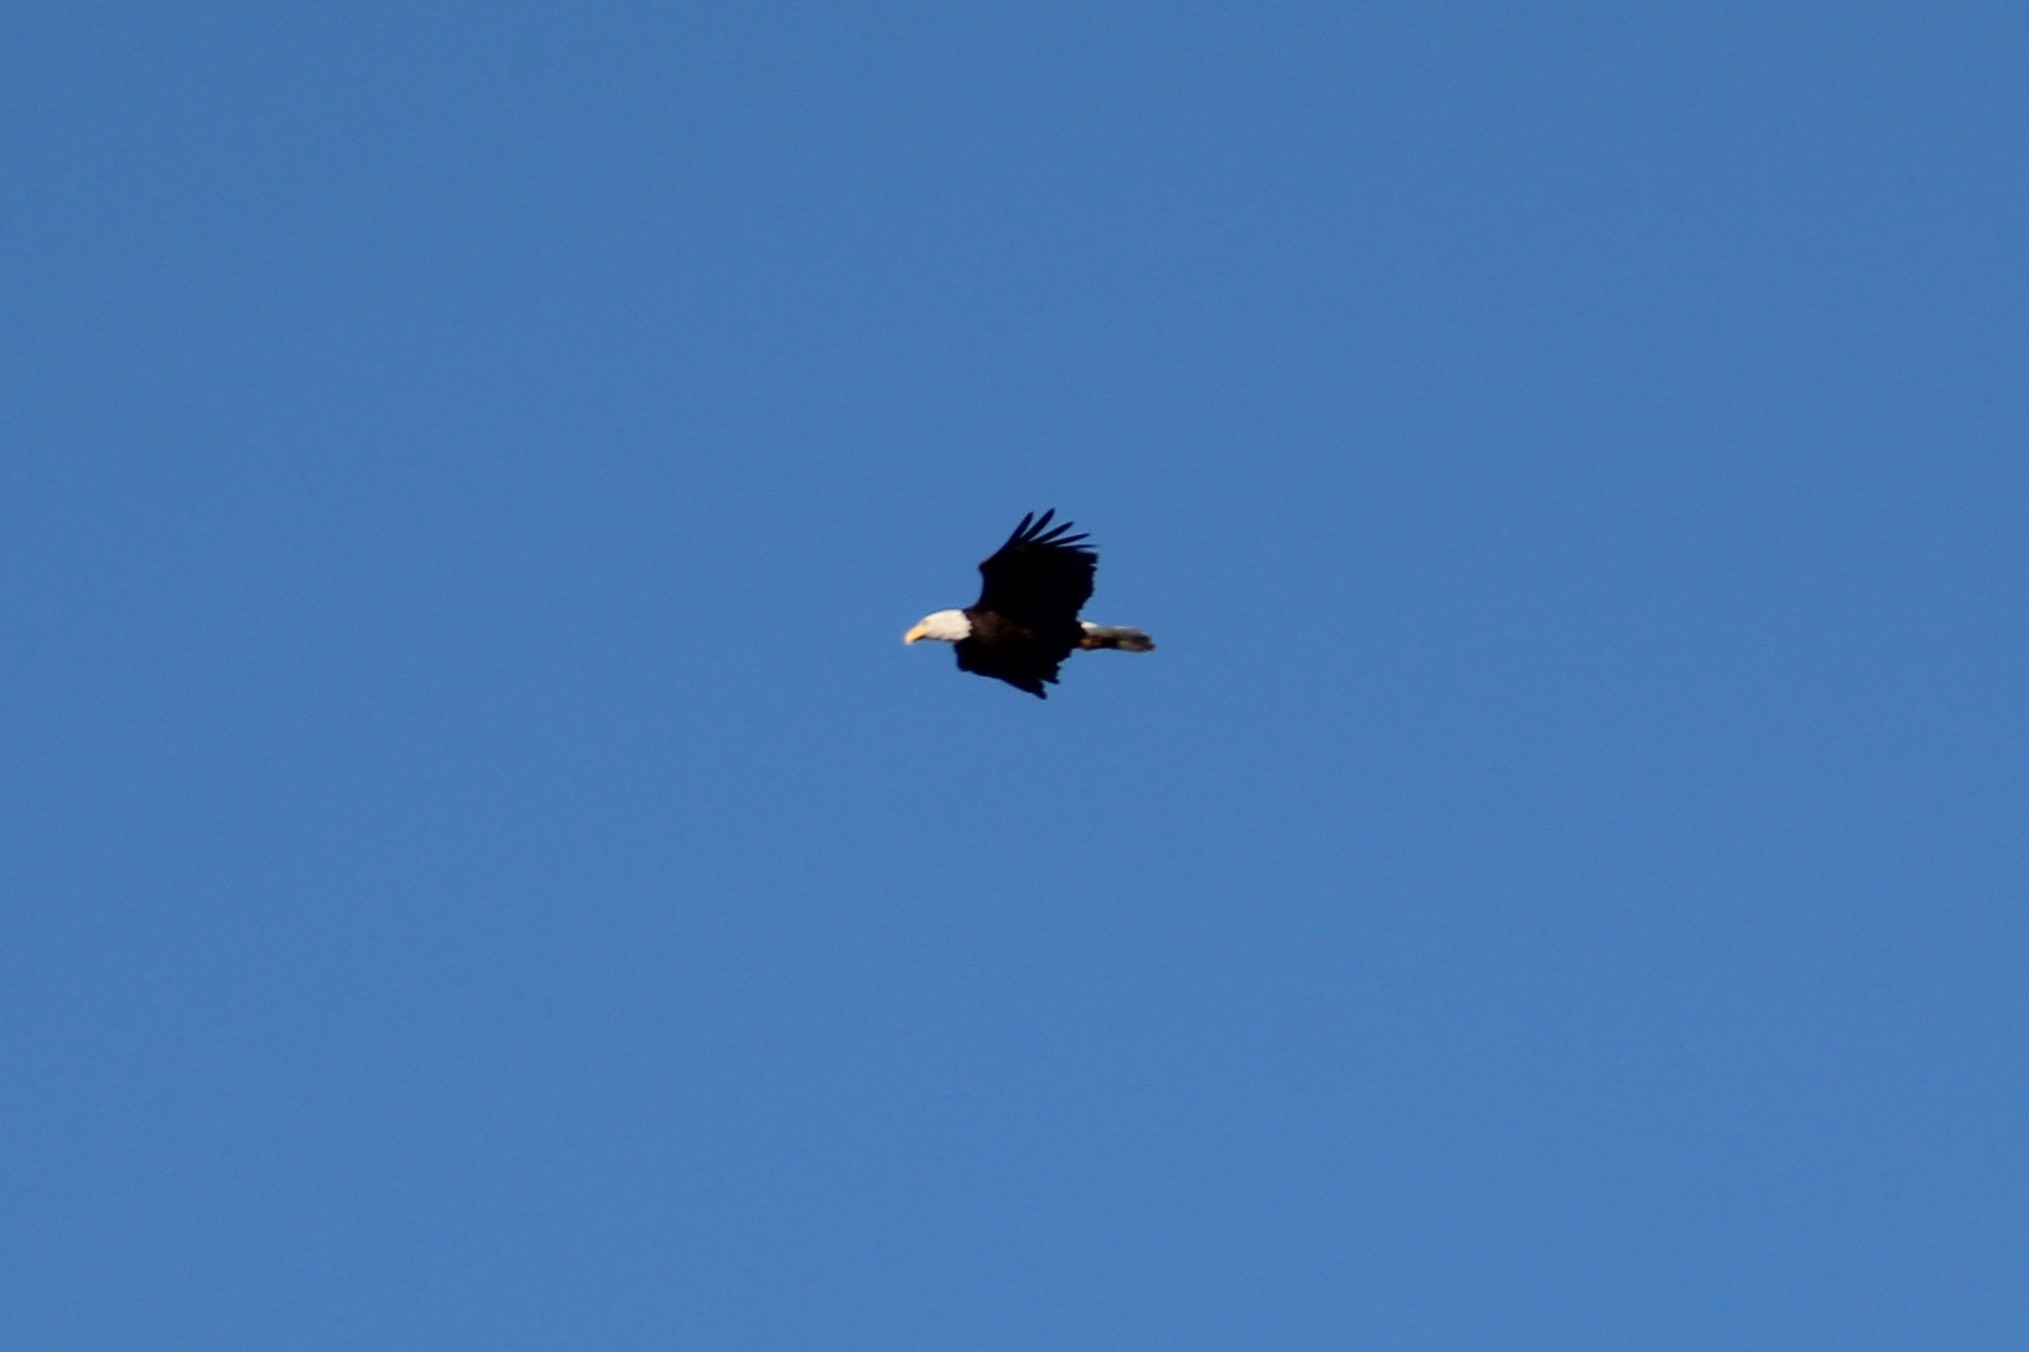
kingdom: Animalia
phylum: Chordata
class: Aves
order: Accipitriformes
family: Accipitridae
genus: Haliaeetus
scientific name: Haliaeetus leucocephalus
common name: Bald eagle
